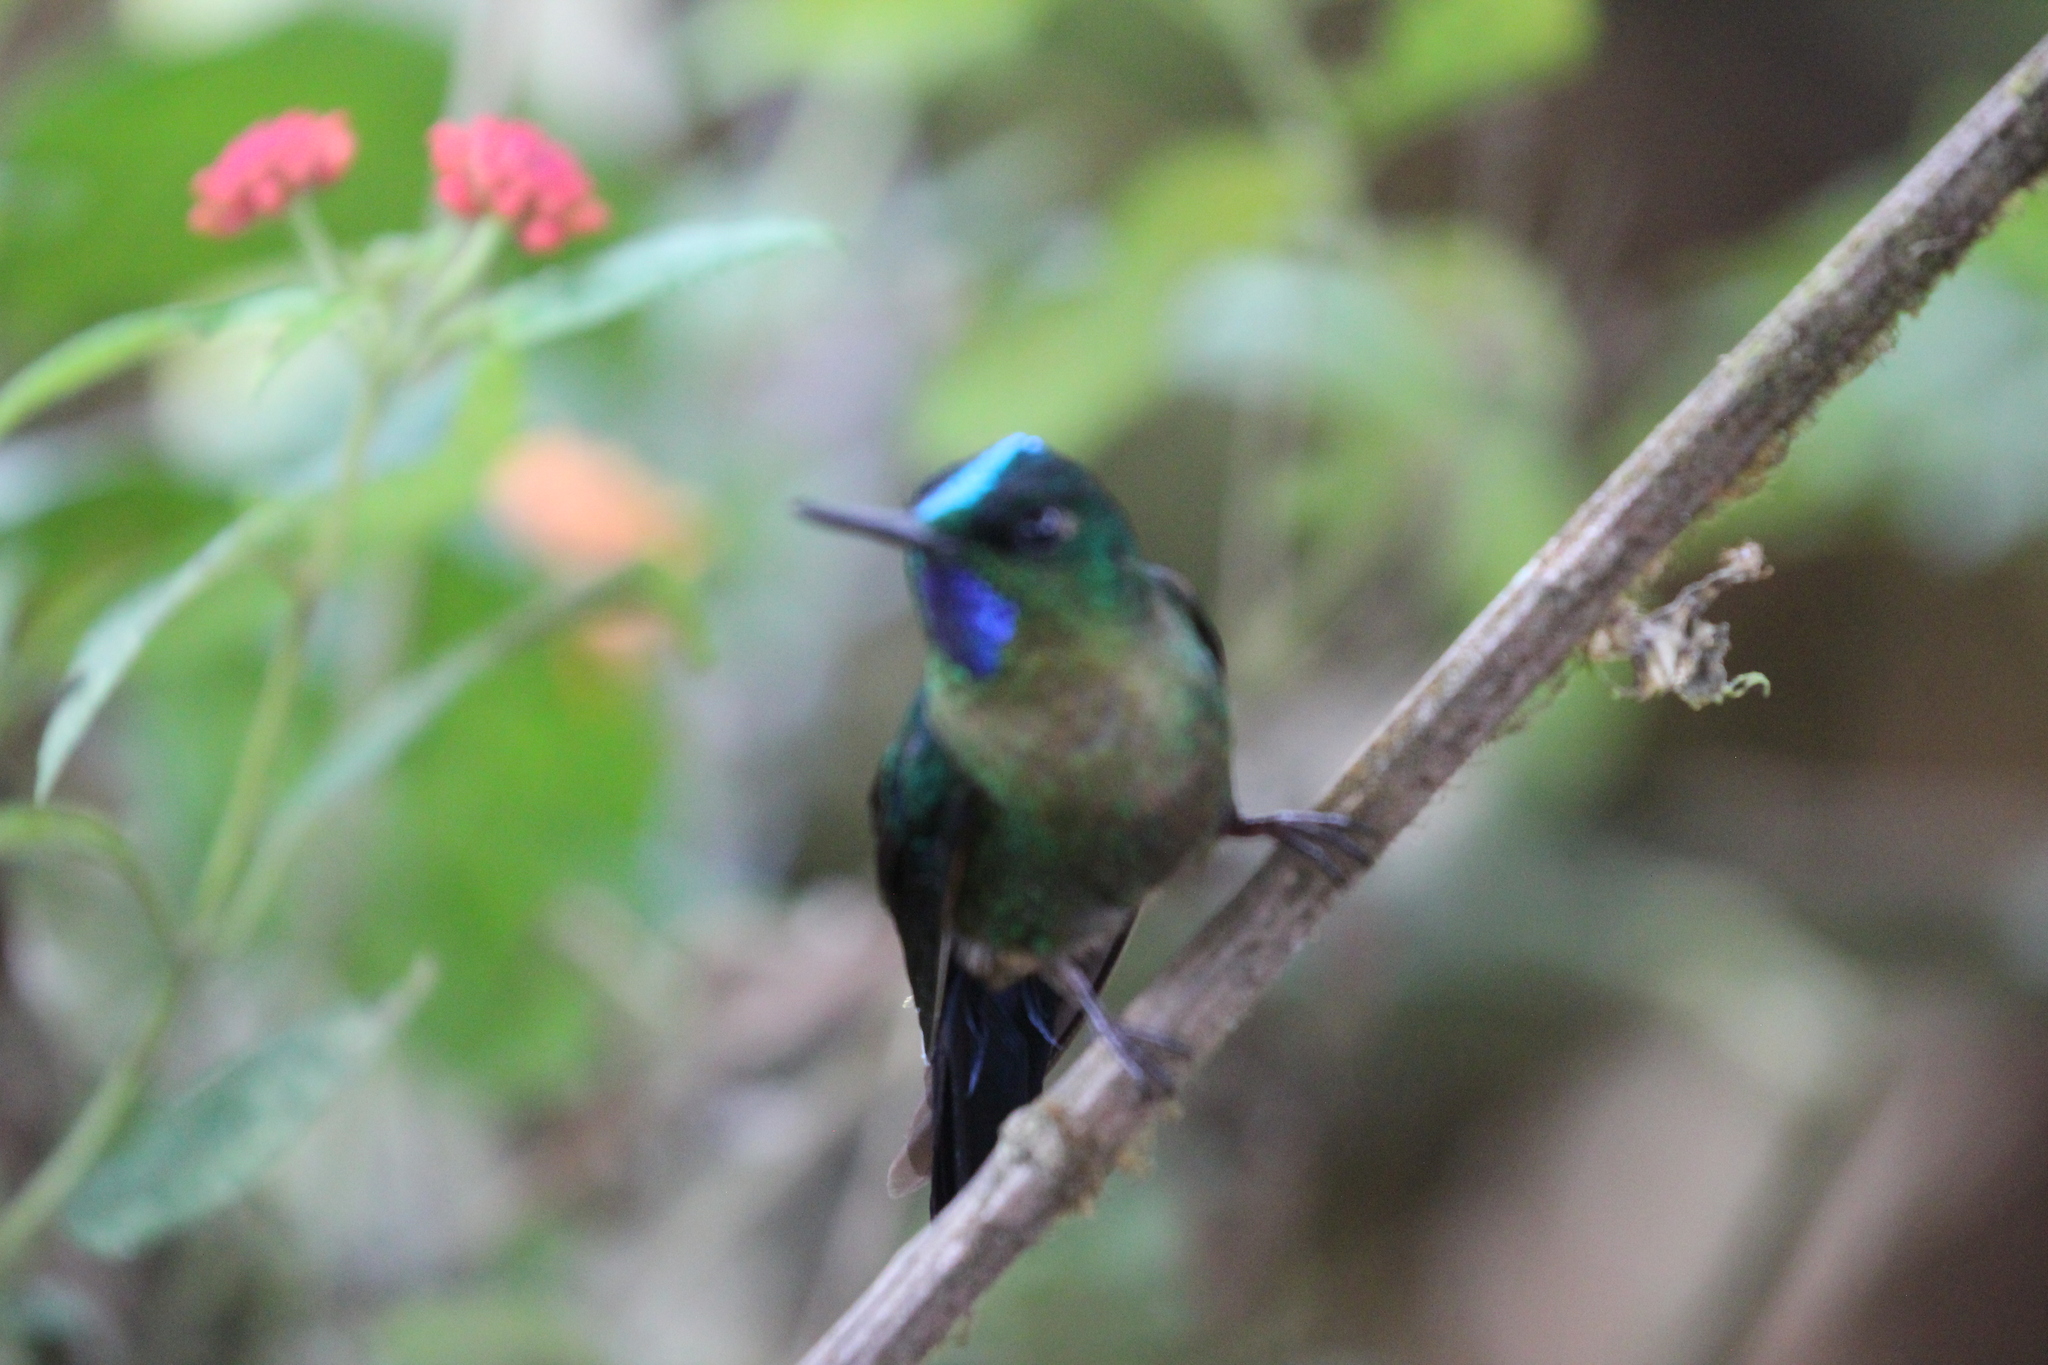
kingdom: Animalia
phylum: Chordata
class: Aves
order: Apodiformes
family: Trochilidae
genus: Aglaiocercus
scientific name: Aglaiocercus coelestis
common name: Violet-tailed sylph
